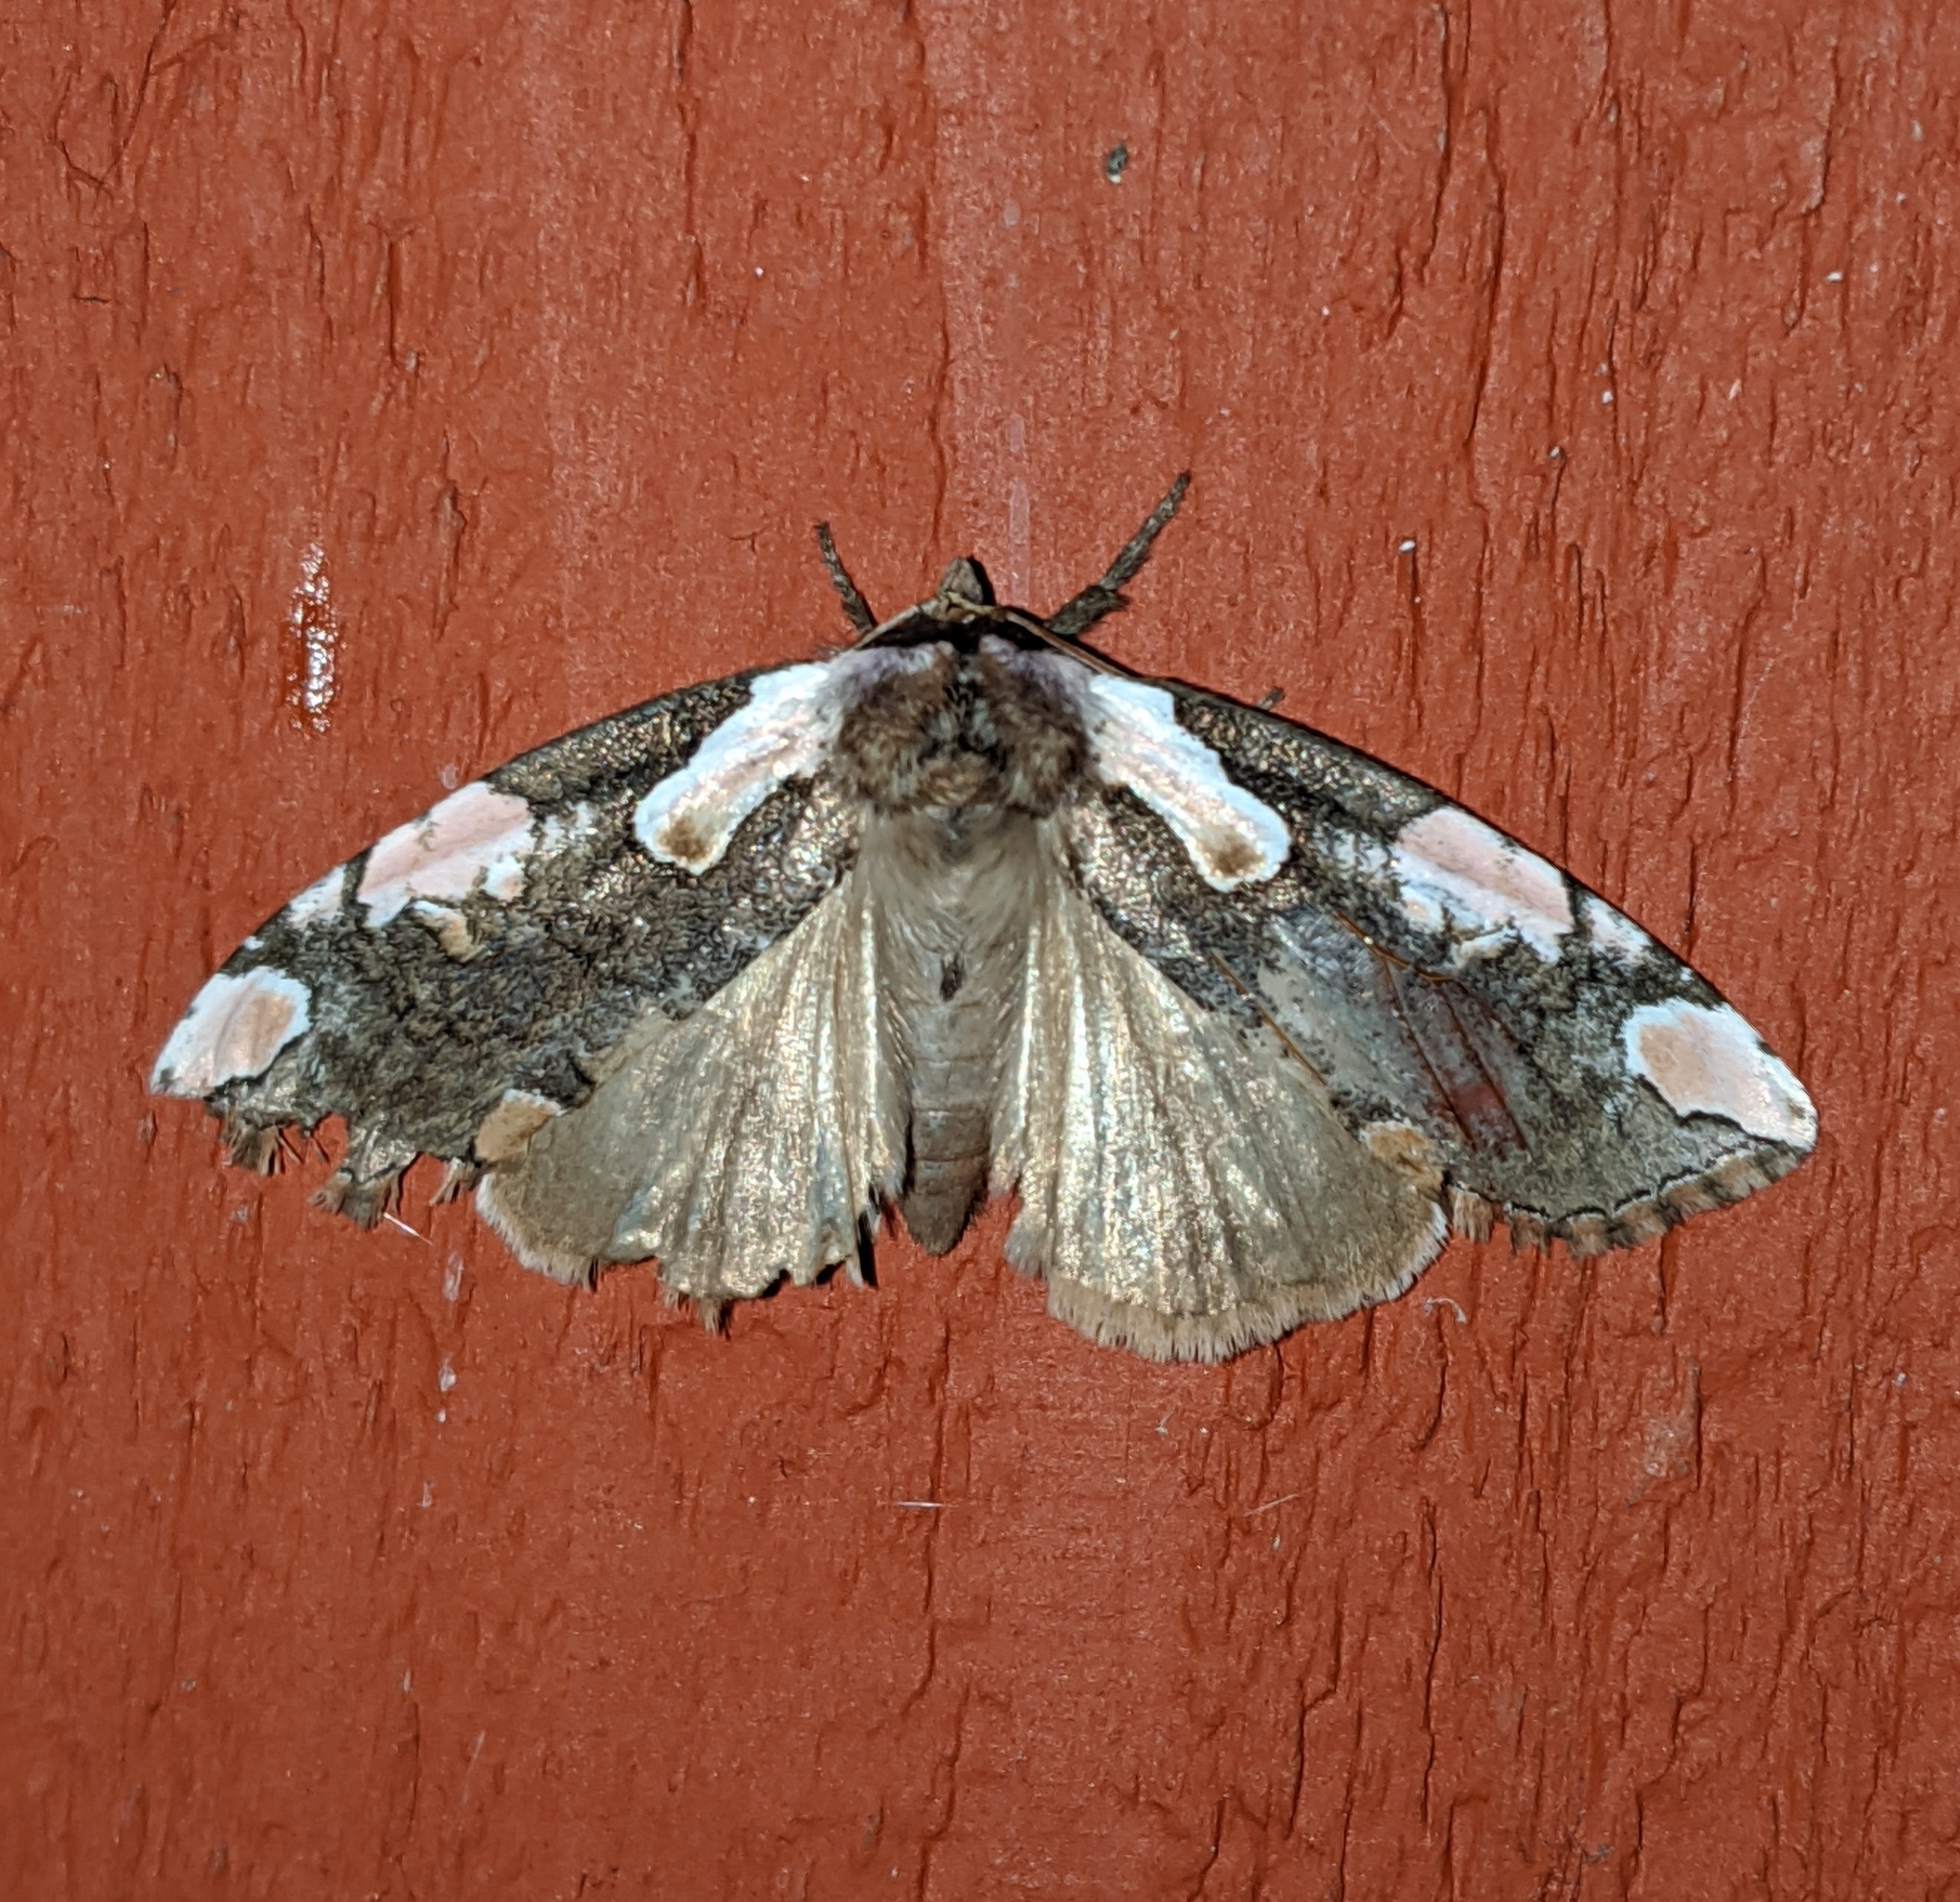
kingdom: Animalia
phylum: Arthropoda
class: Insecta
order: Lepidoptera
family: Drepanidae
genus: Euthyatira
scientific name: Euthyatira pudens
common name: Dogwood thyatirid moth
